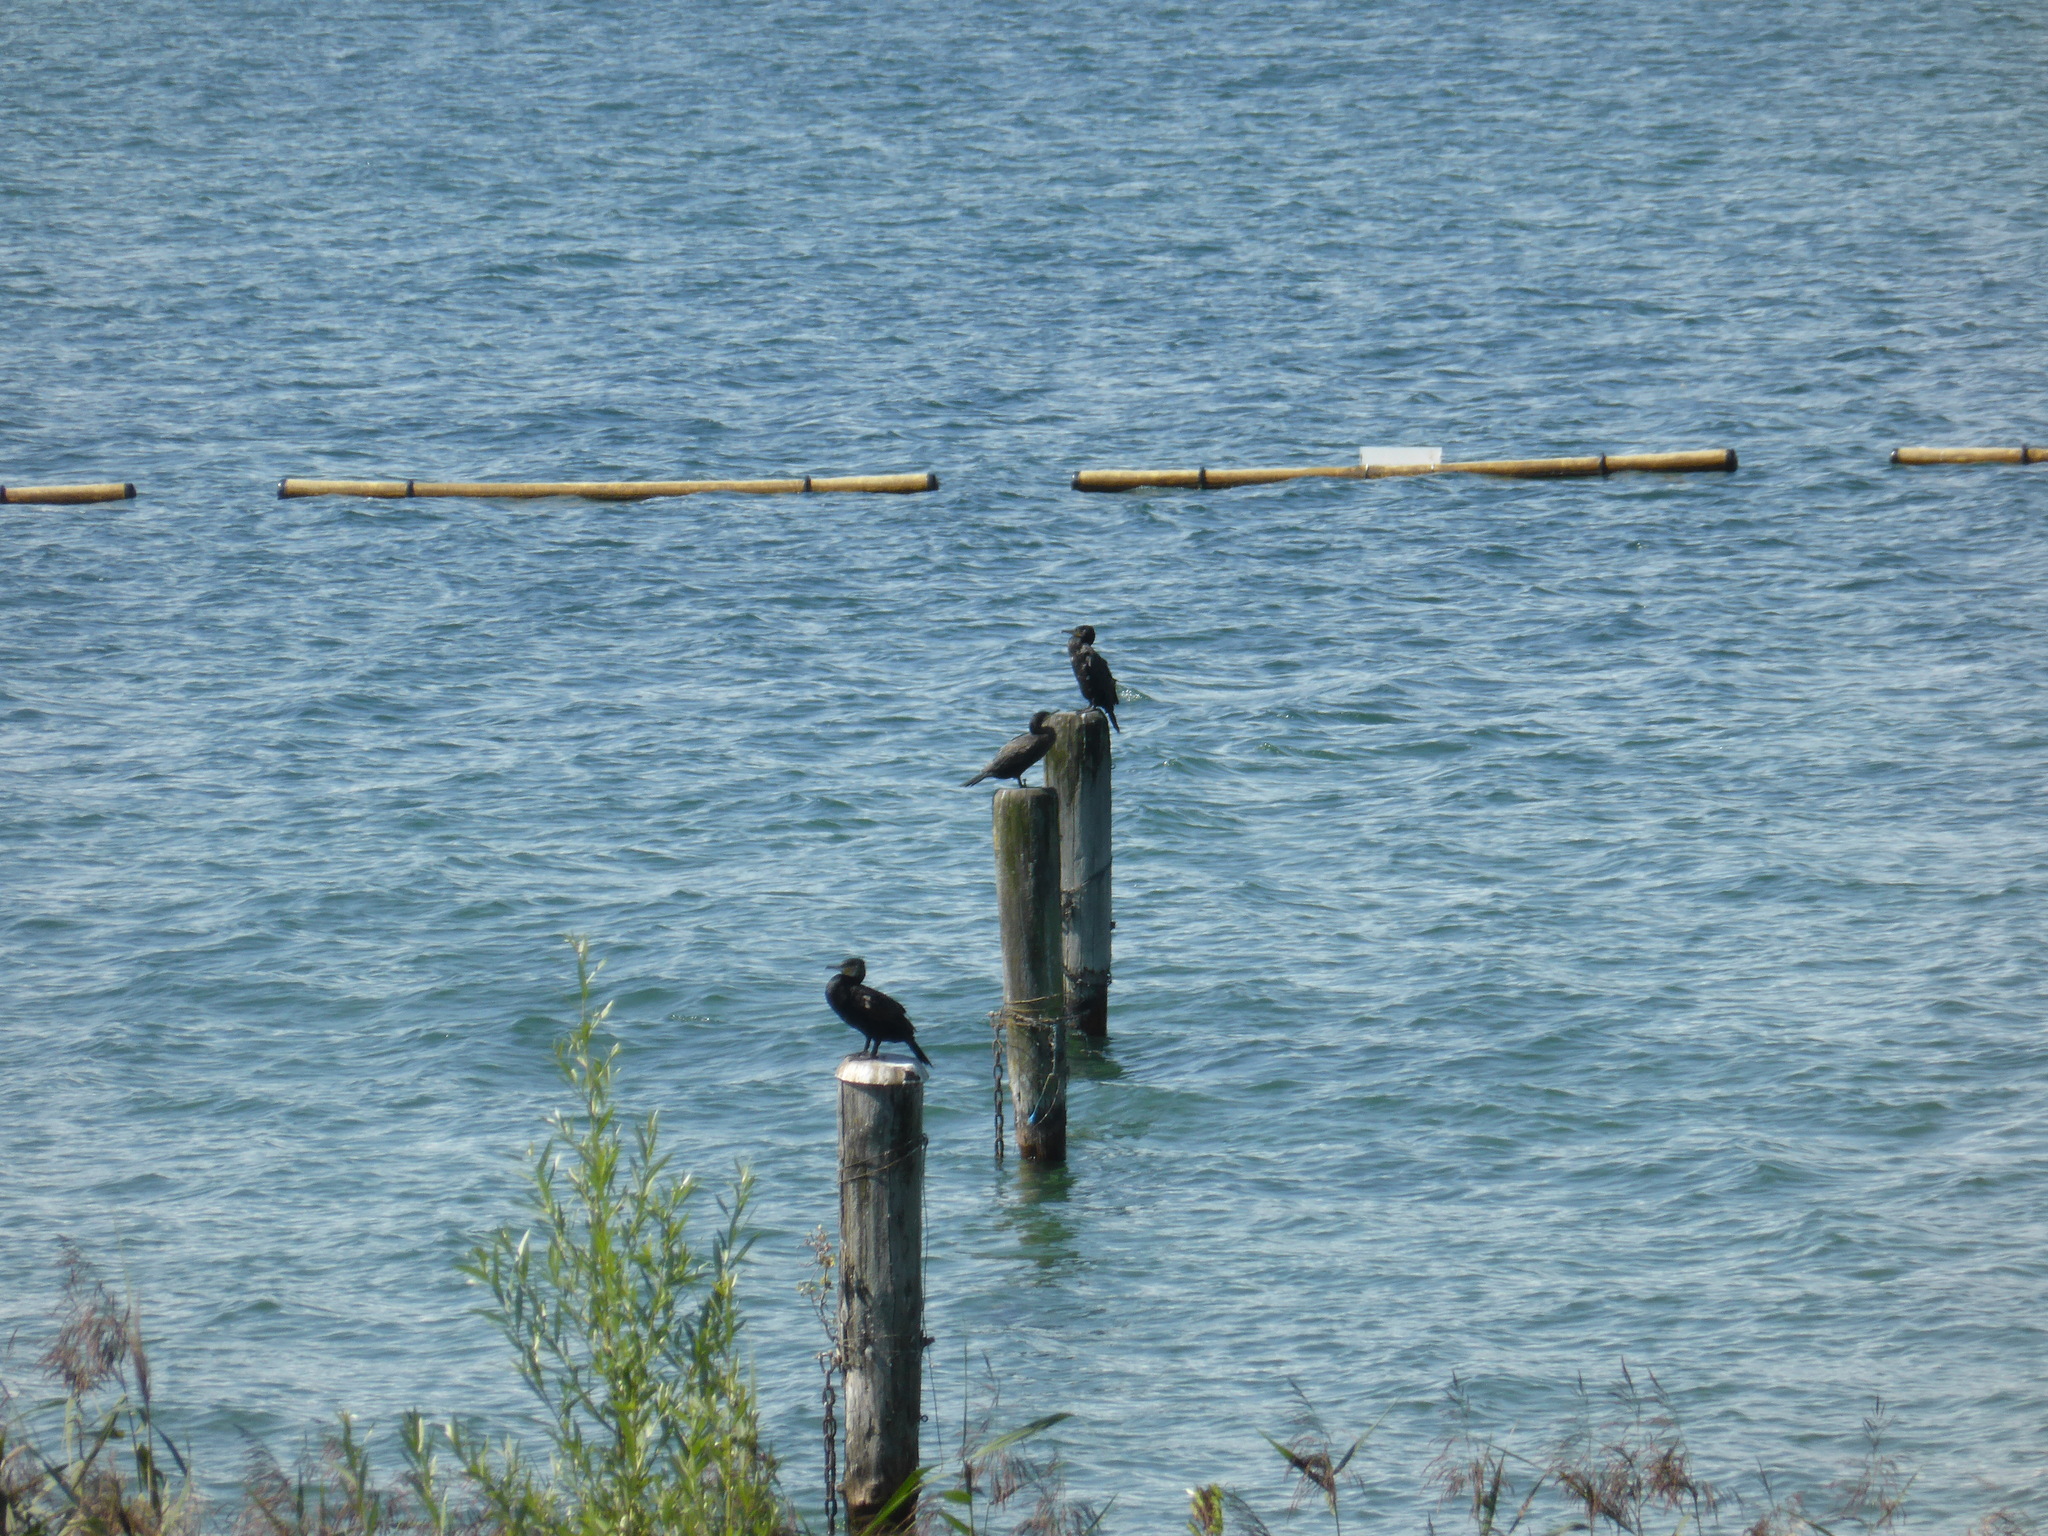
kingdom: Animalia
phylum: Chordata
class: Aves
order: Suliformes
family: Phalacrocoracidae
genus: Phalacrocorax
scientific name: Phalacrocorax carbo
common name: Great cormorant
